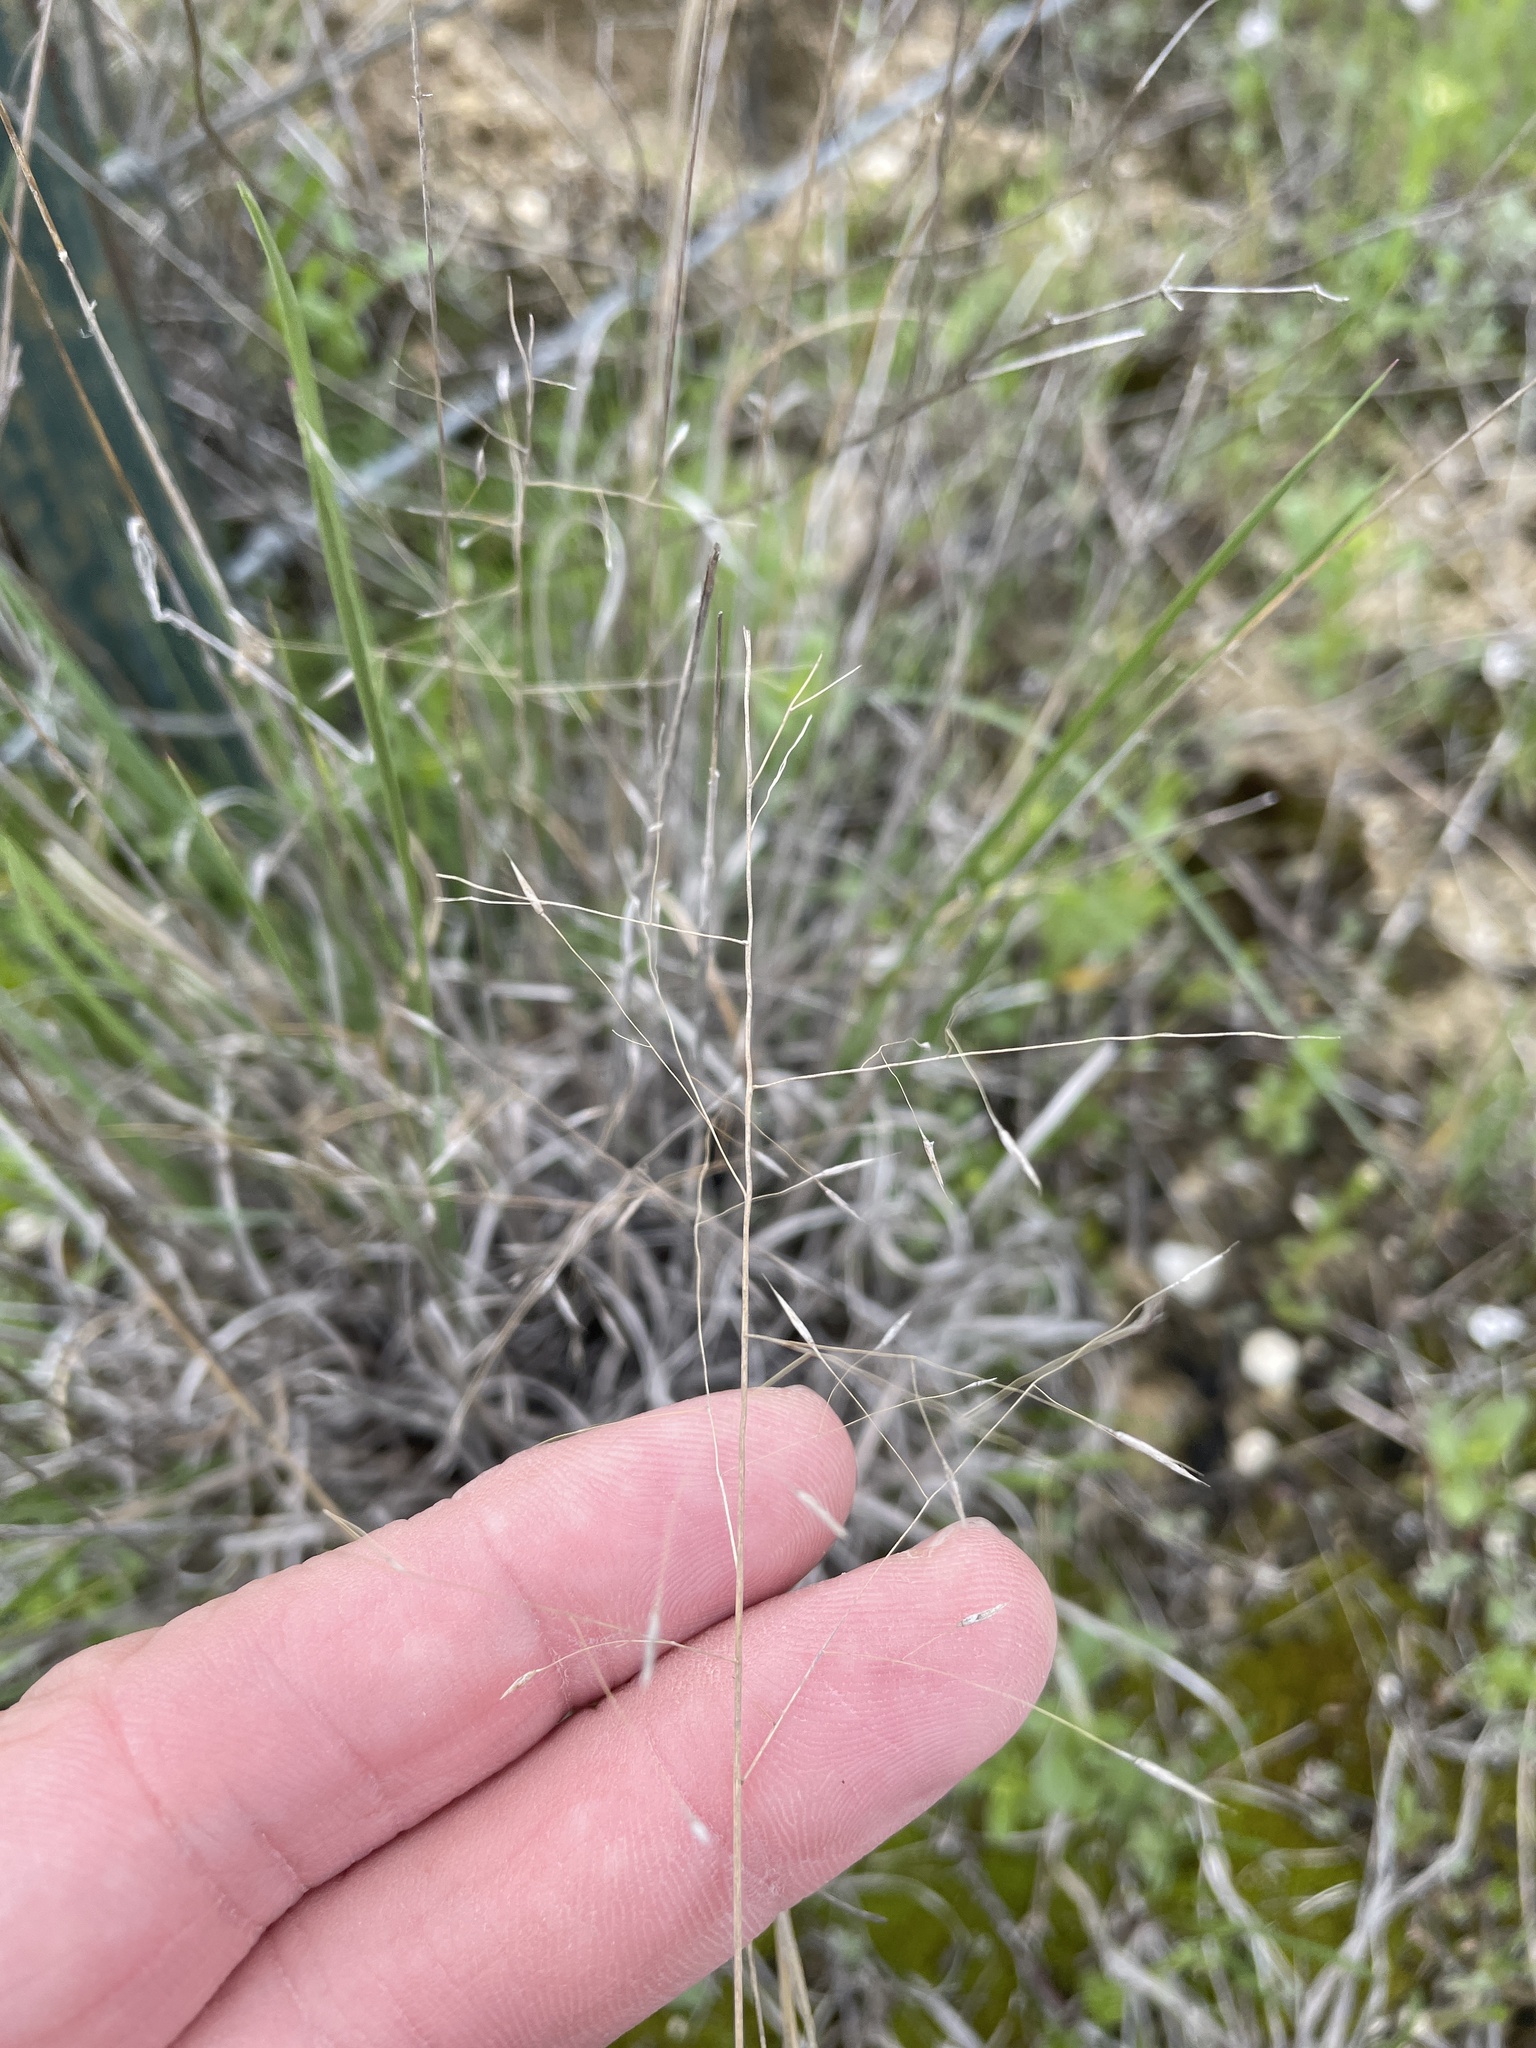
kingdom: Plantae
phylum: Tracheophyta
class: Liliopsida
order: Poales
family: Poaceae
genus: Muhlenbergia
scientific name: Muhlenbergia reverchonii
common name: Seep muhly
